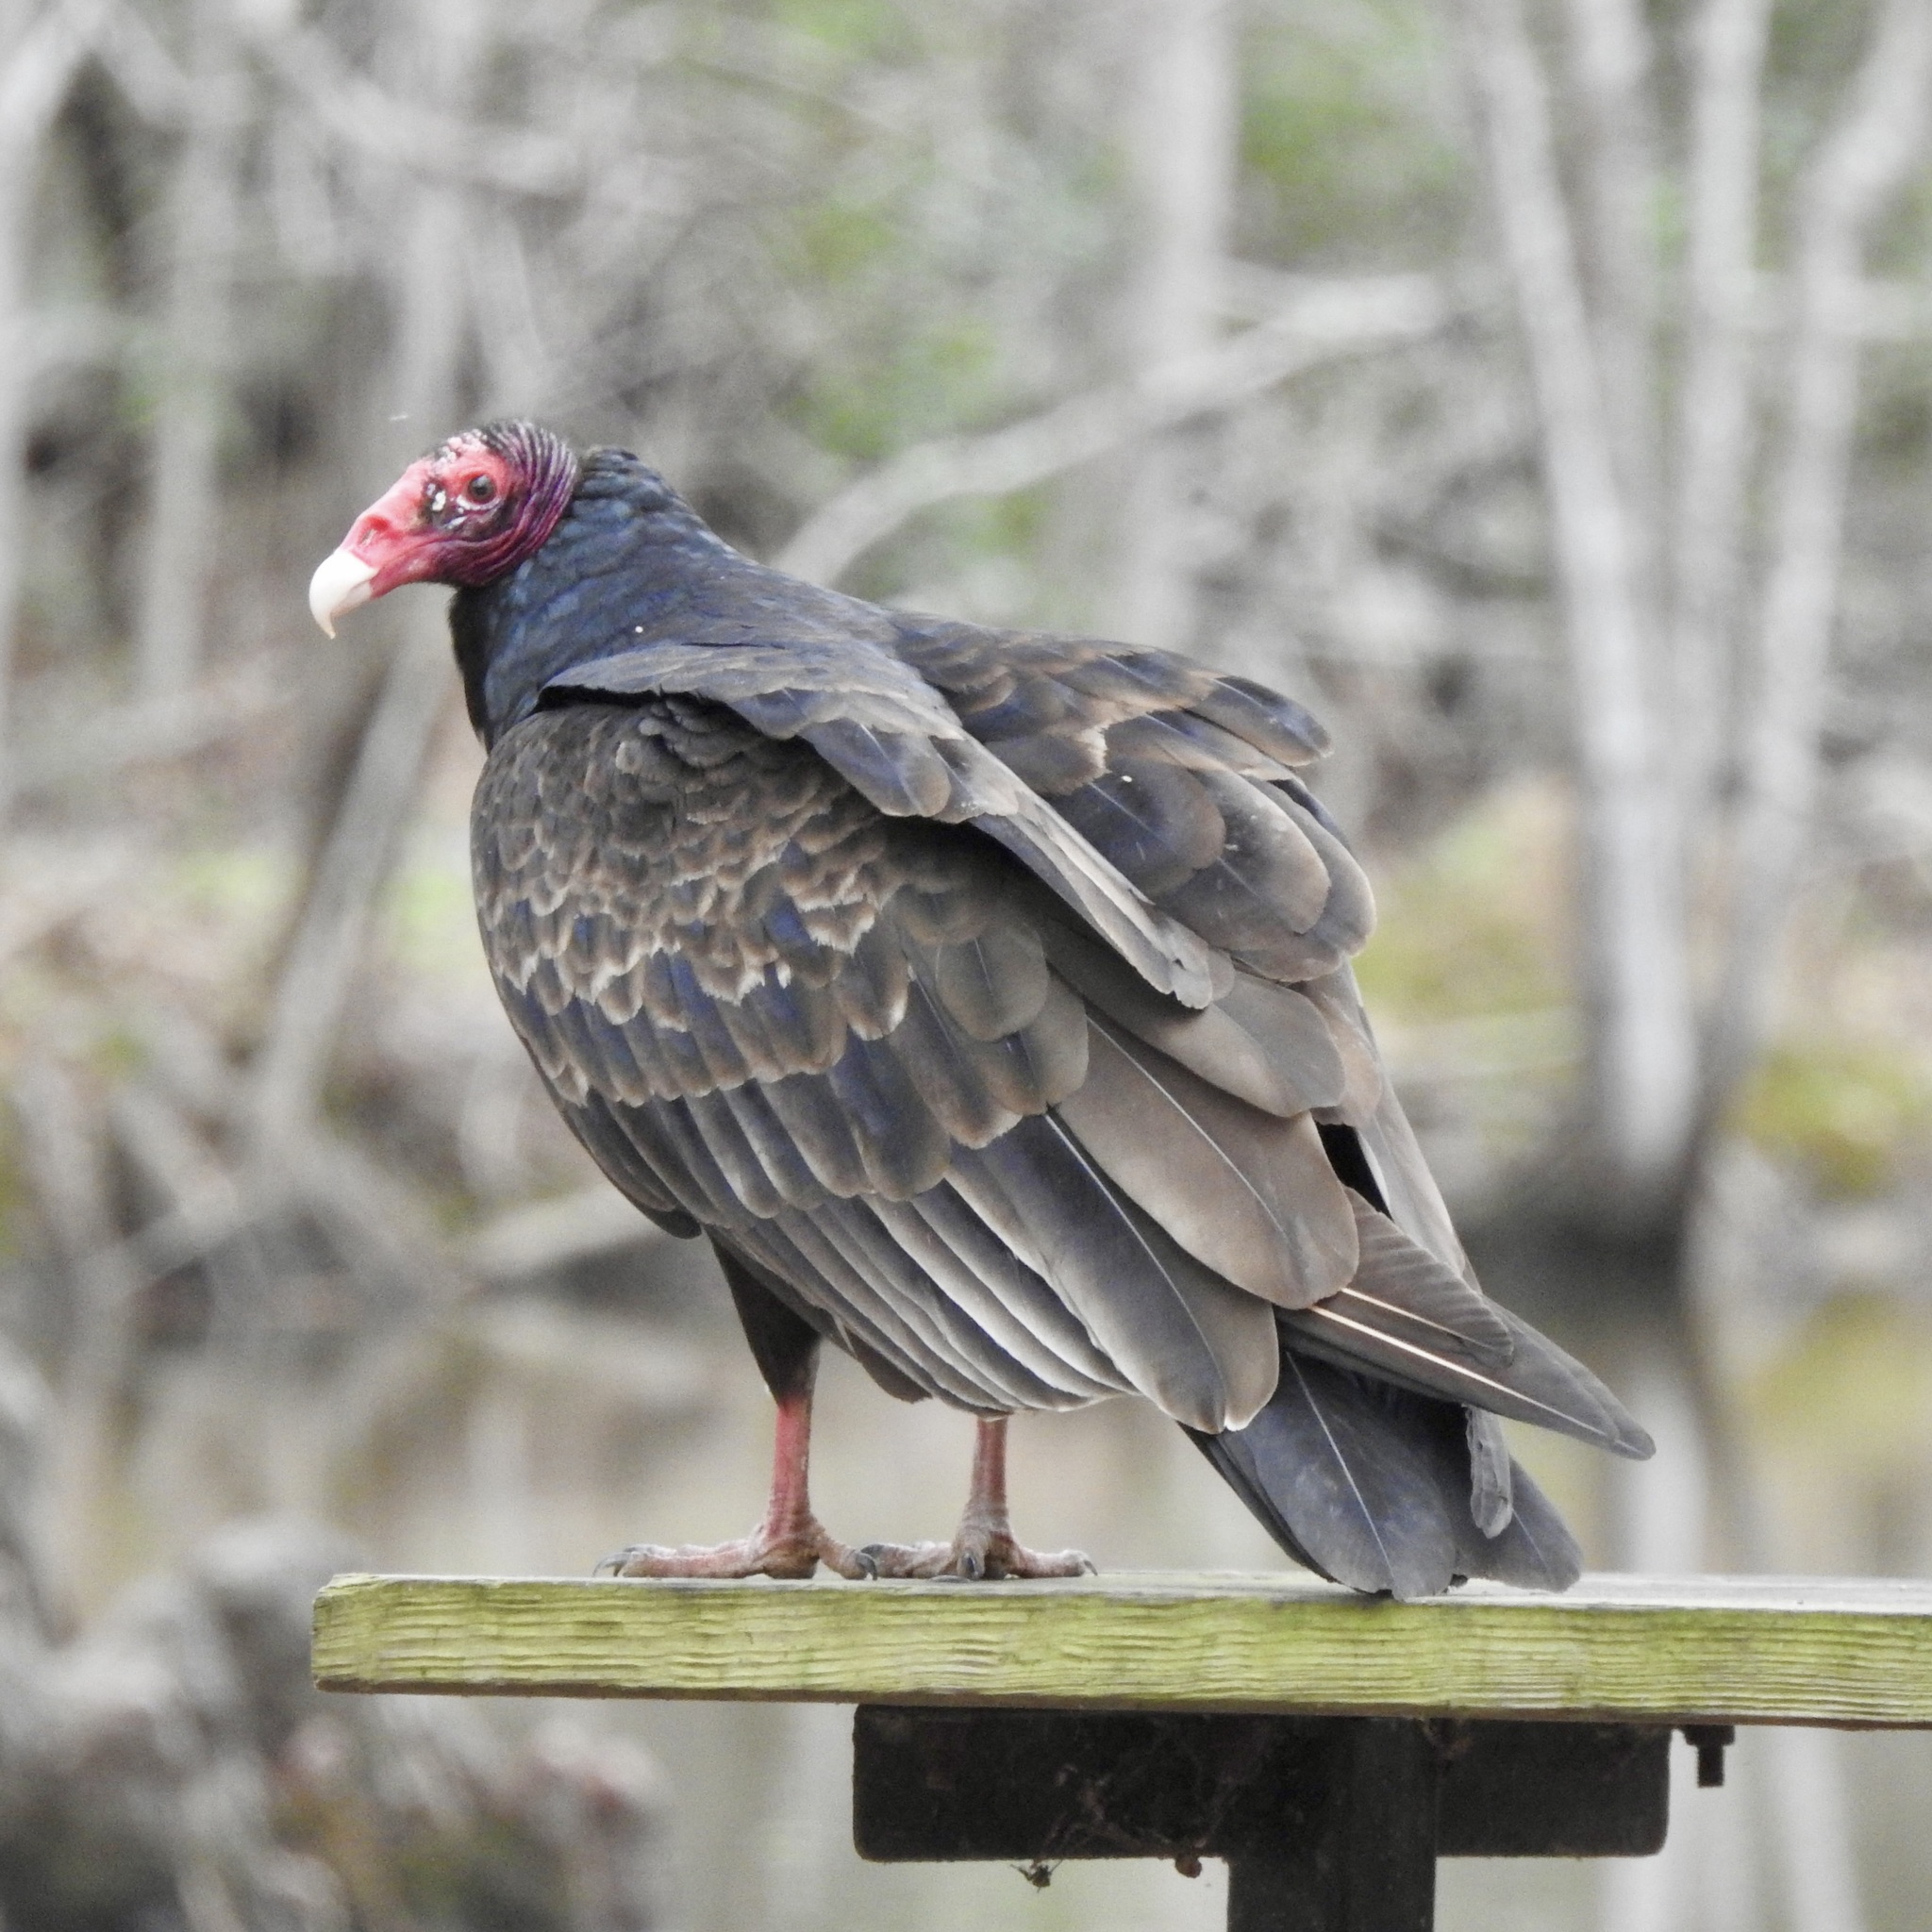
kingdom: Animalia
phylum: Chordata
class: Aves
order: Accipitriformes
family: Cathartidae
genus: Cathartes
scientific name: Cathartes aura
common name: Turkey vulture
